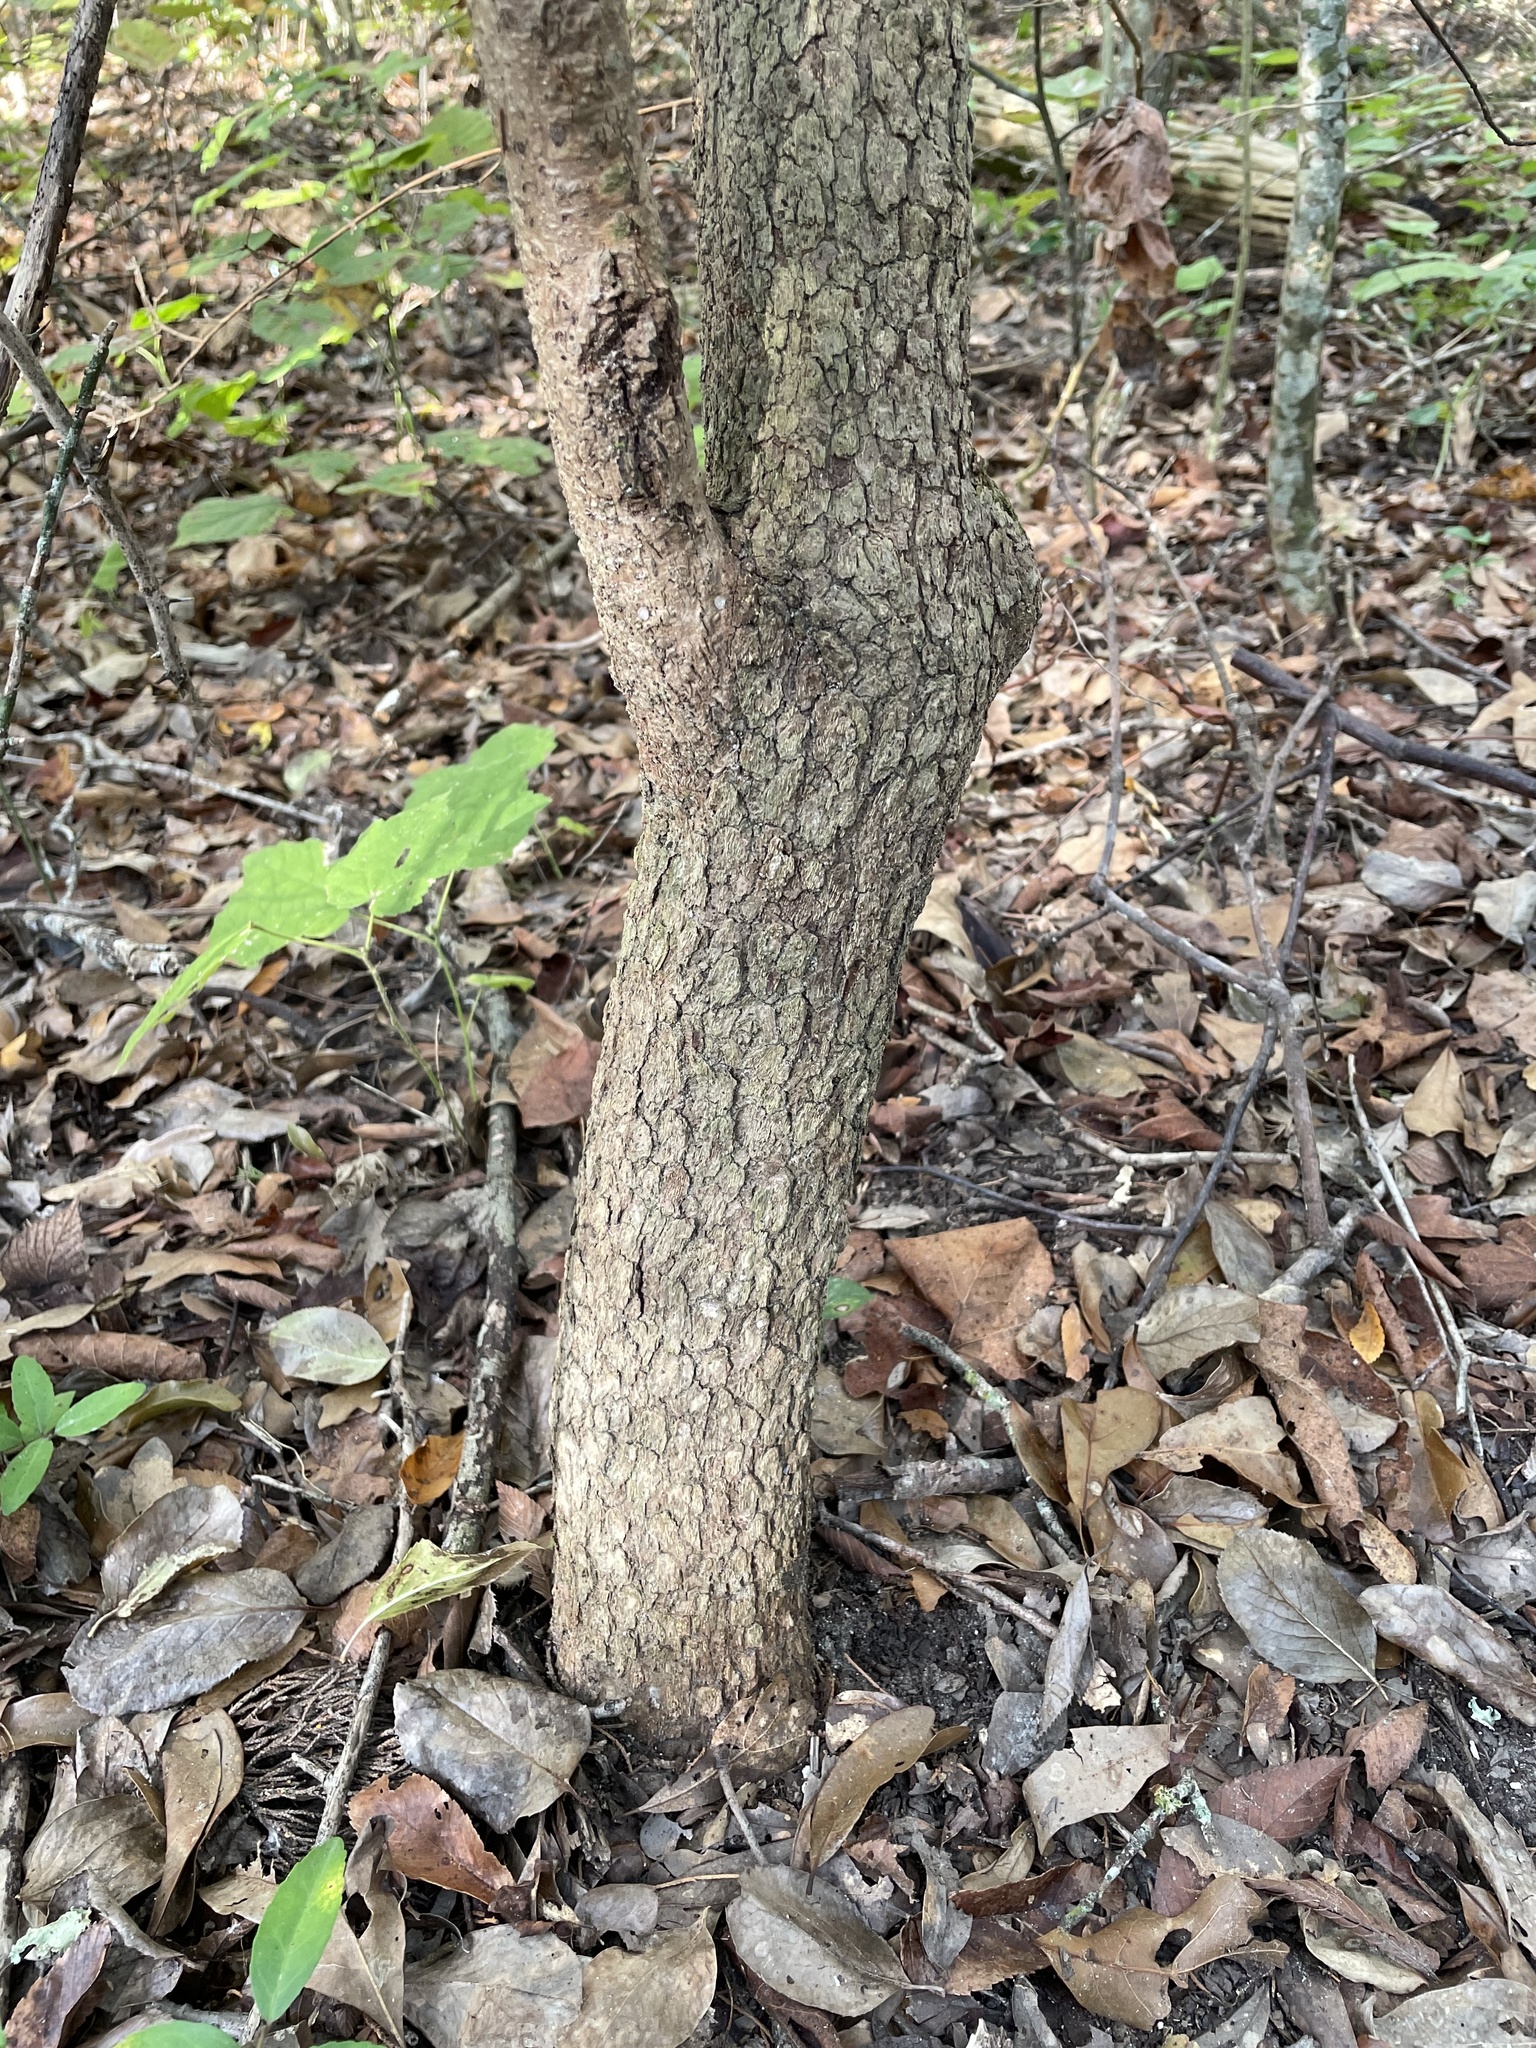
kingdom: Plantae
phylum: Tracheophyta
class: Magnoliopsida
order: Dipsacales
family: Viburnaceae
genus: Viburnum
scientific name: Viburnum rufidulum
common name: Blue haw
